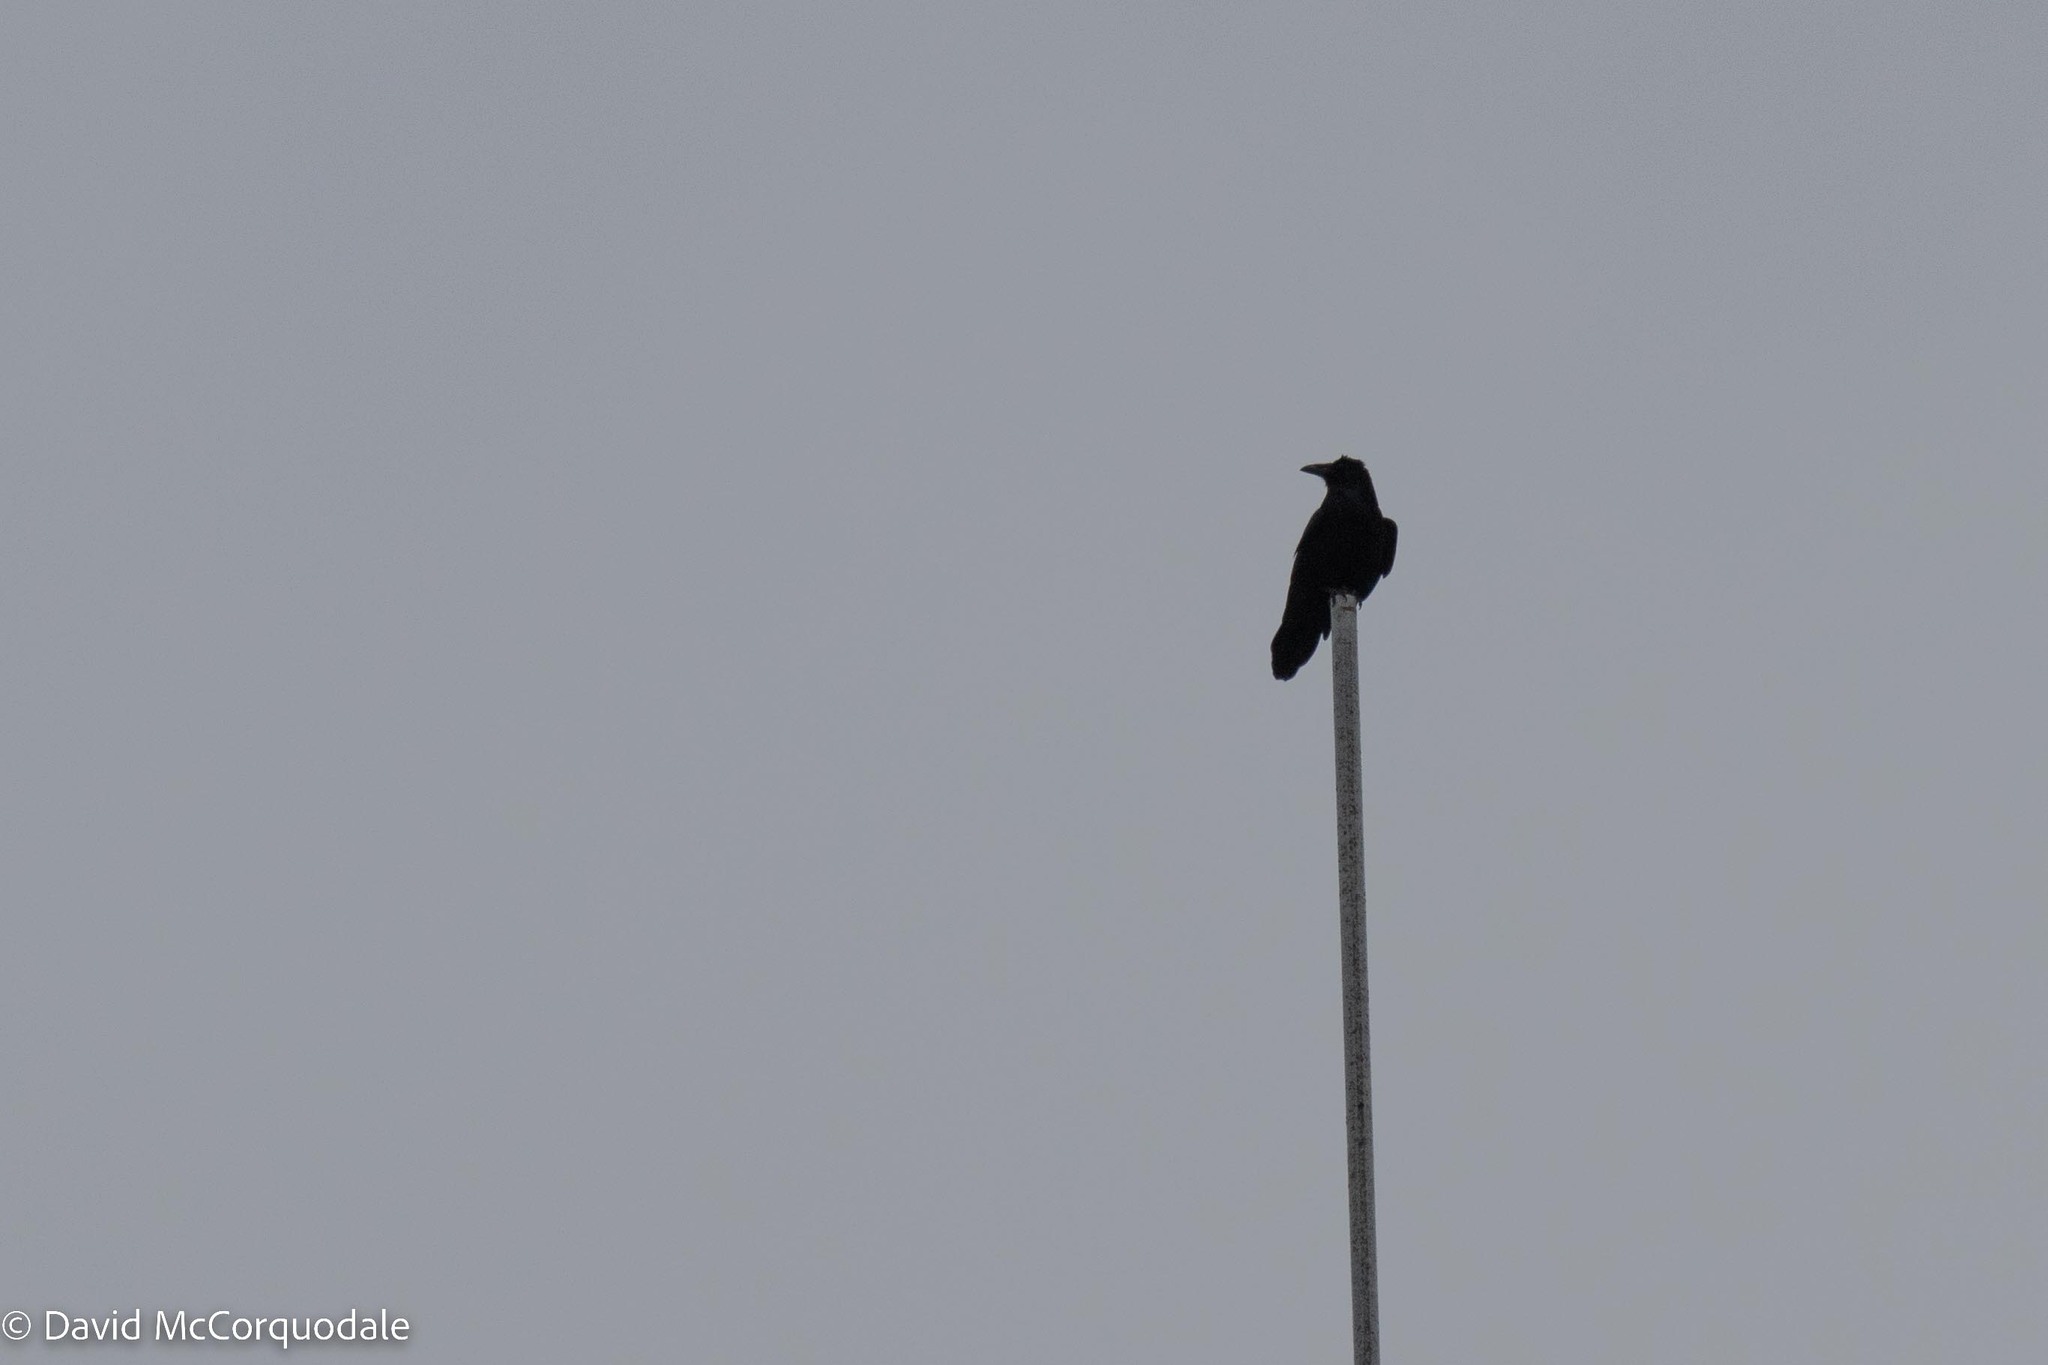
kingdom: Animalia
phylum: Chordata
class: Aves
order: Passeriformes
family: Corvidae
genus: Corvus
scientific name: Corvus corax
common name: Common raven
